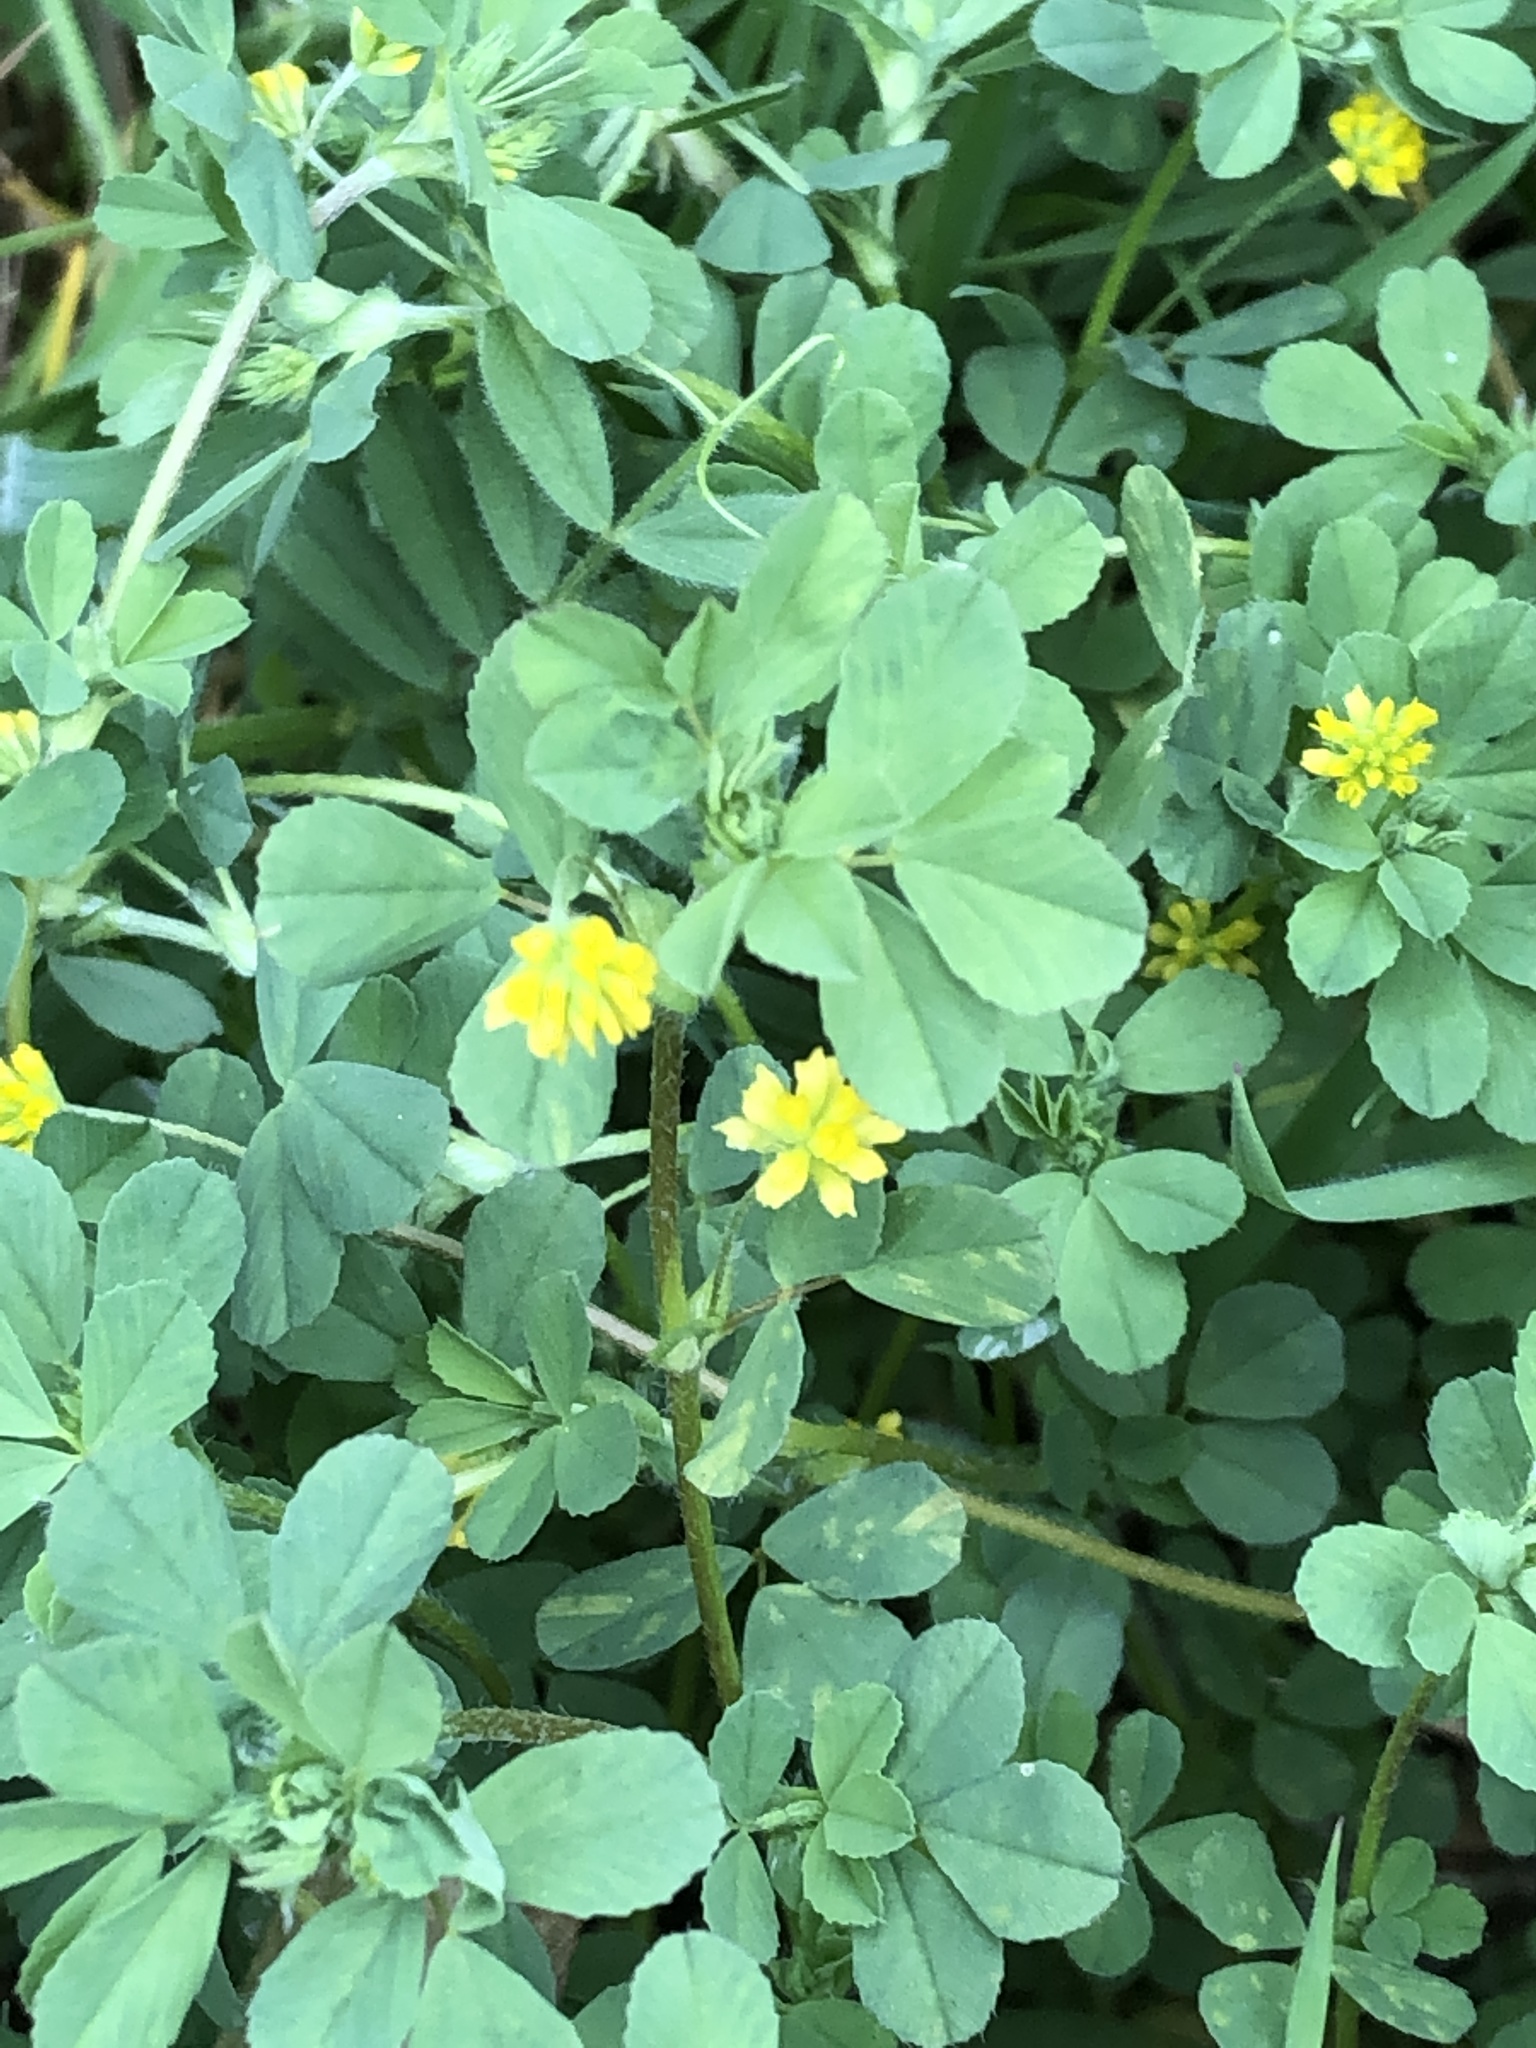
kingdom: Plantae
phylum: Tracheophyta
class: Magnoliopsida
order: Fabales
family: Fabaceae
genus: Trifolium
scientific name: Trifolium dubium
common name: Suckling clover
